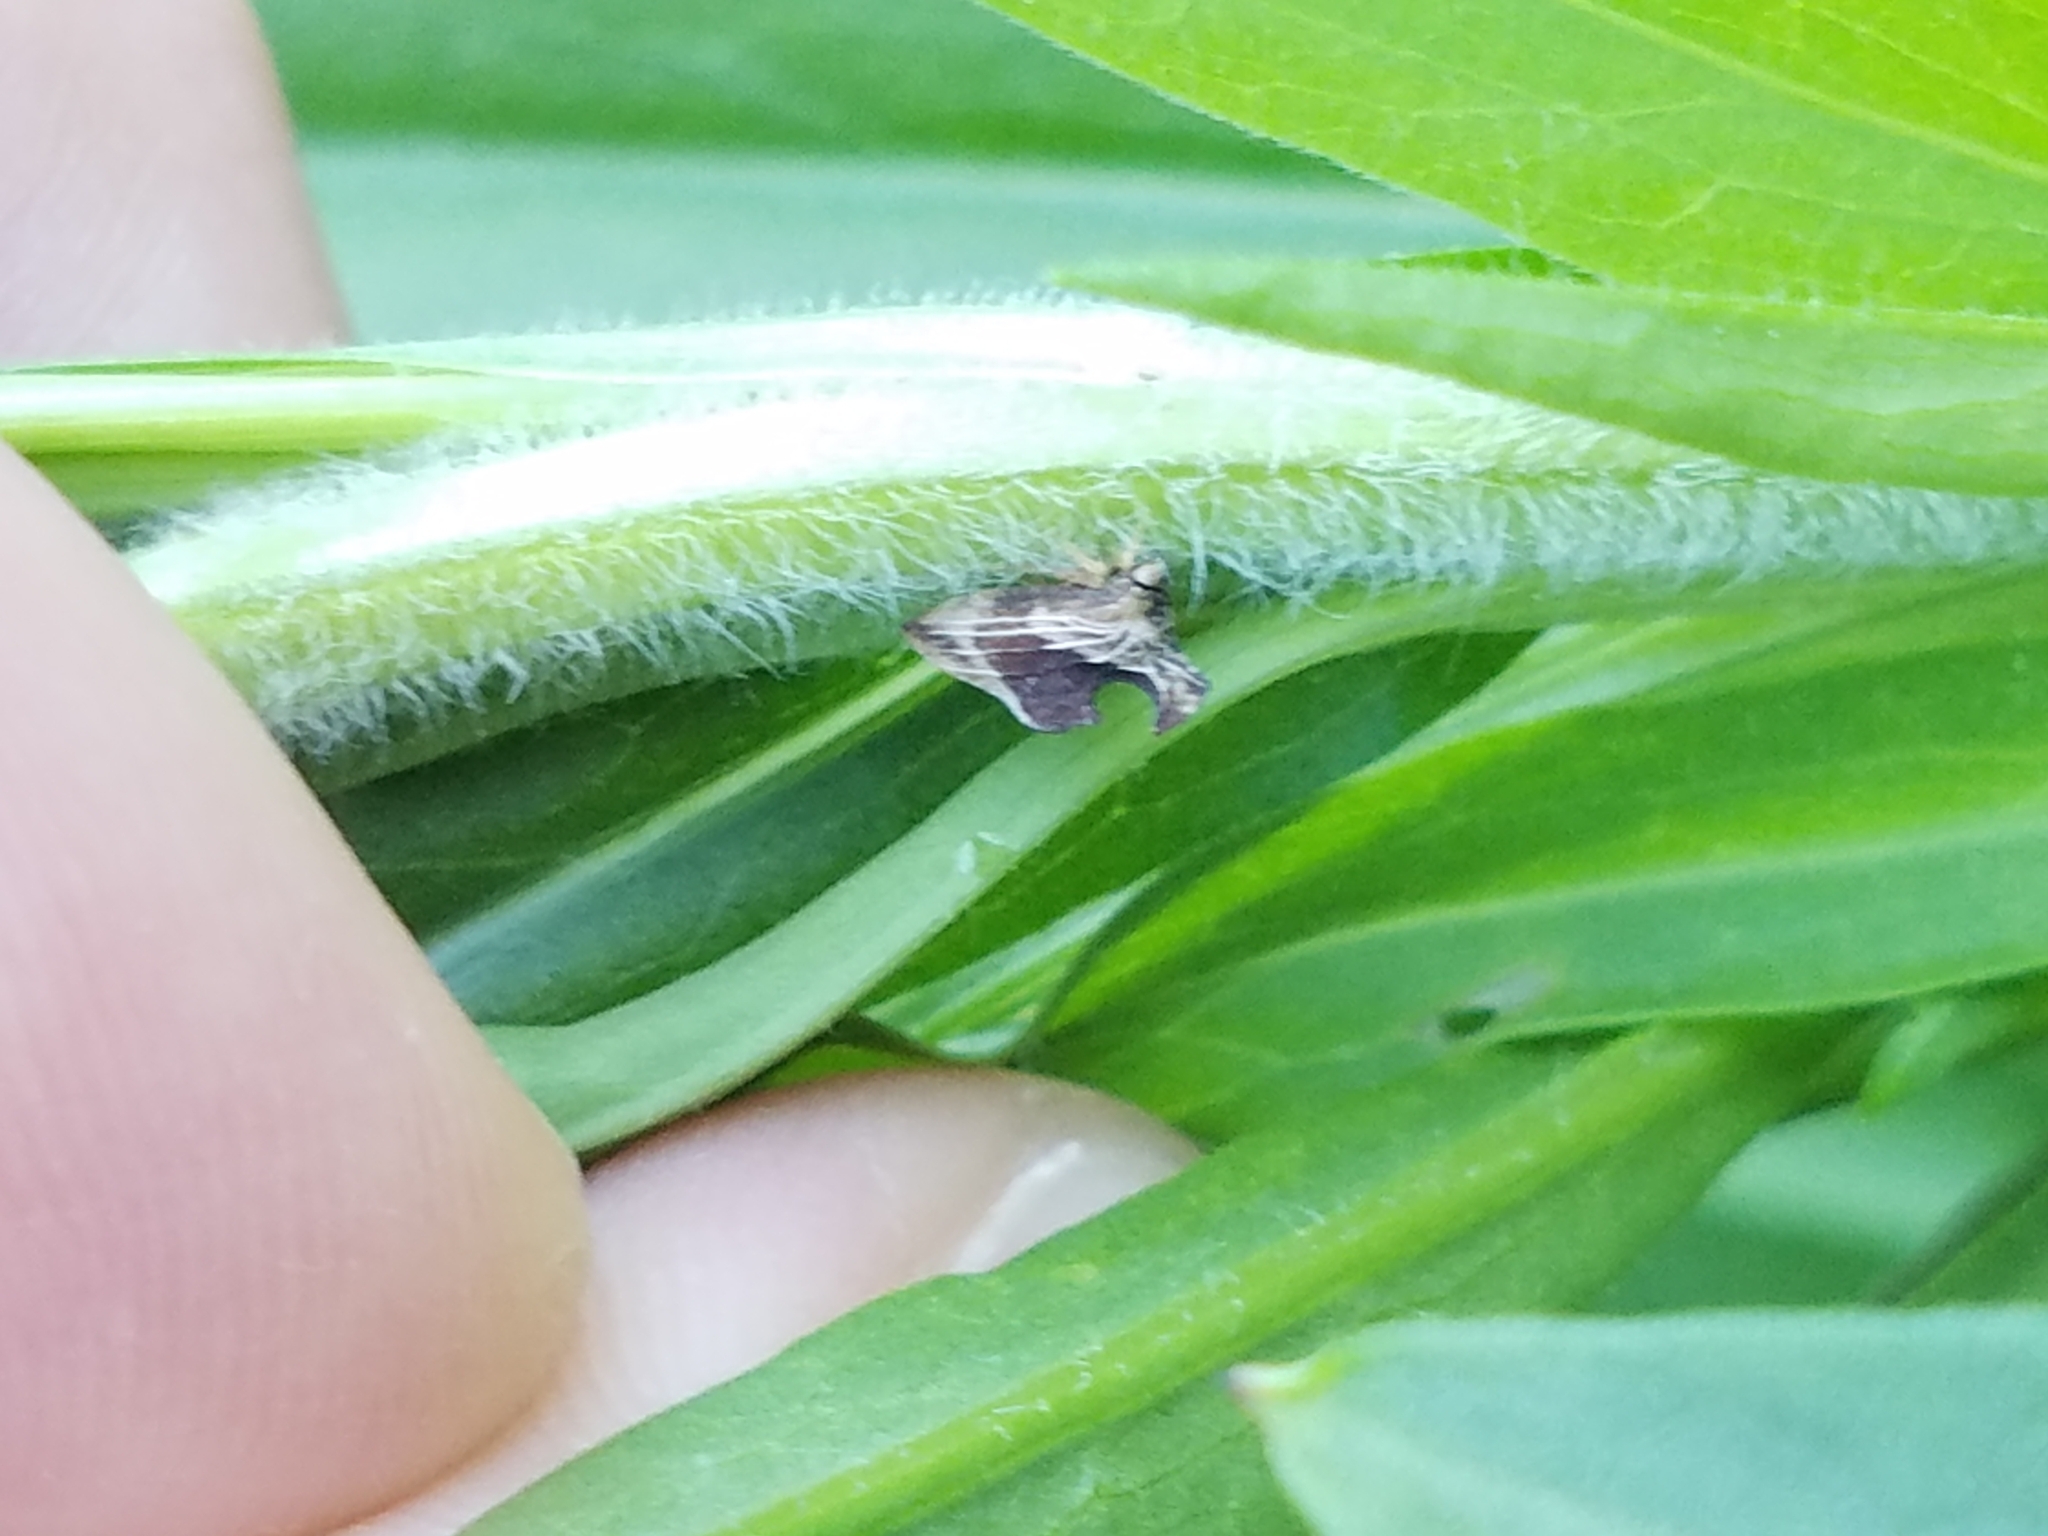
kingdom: Animalia
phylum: Arthropoda
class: Insecta
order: Hemiptera
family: Membracidae
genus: Entylia
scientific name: Entylia carinata
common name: Keeled treehopper
